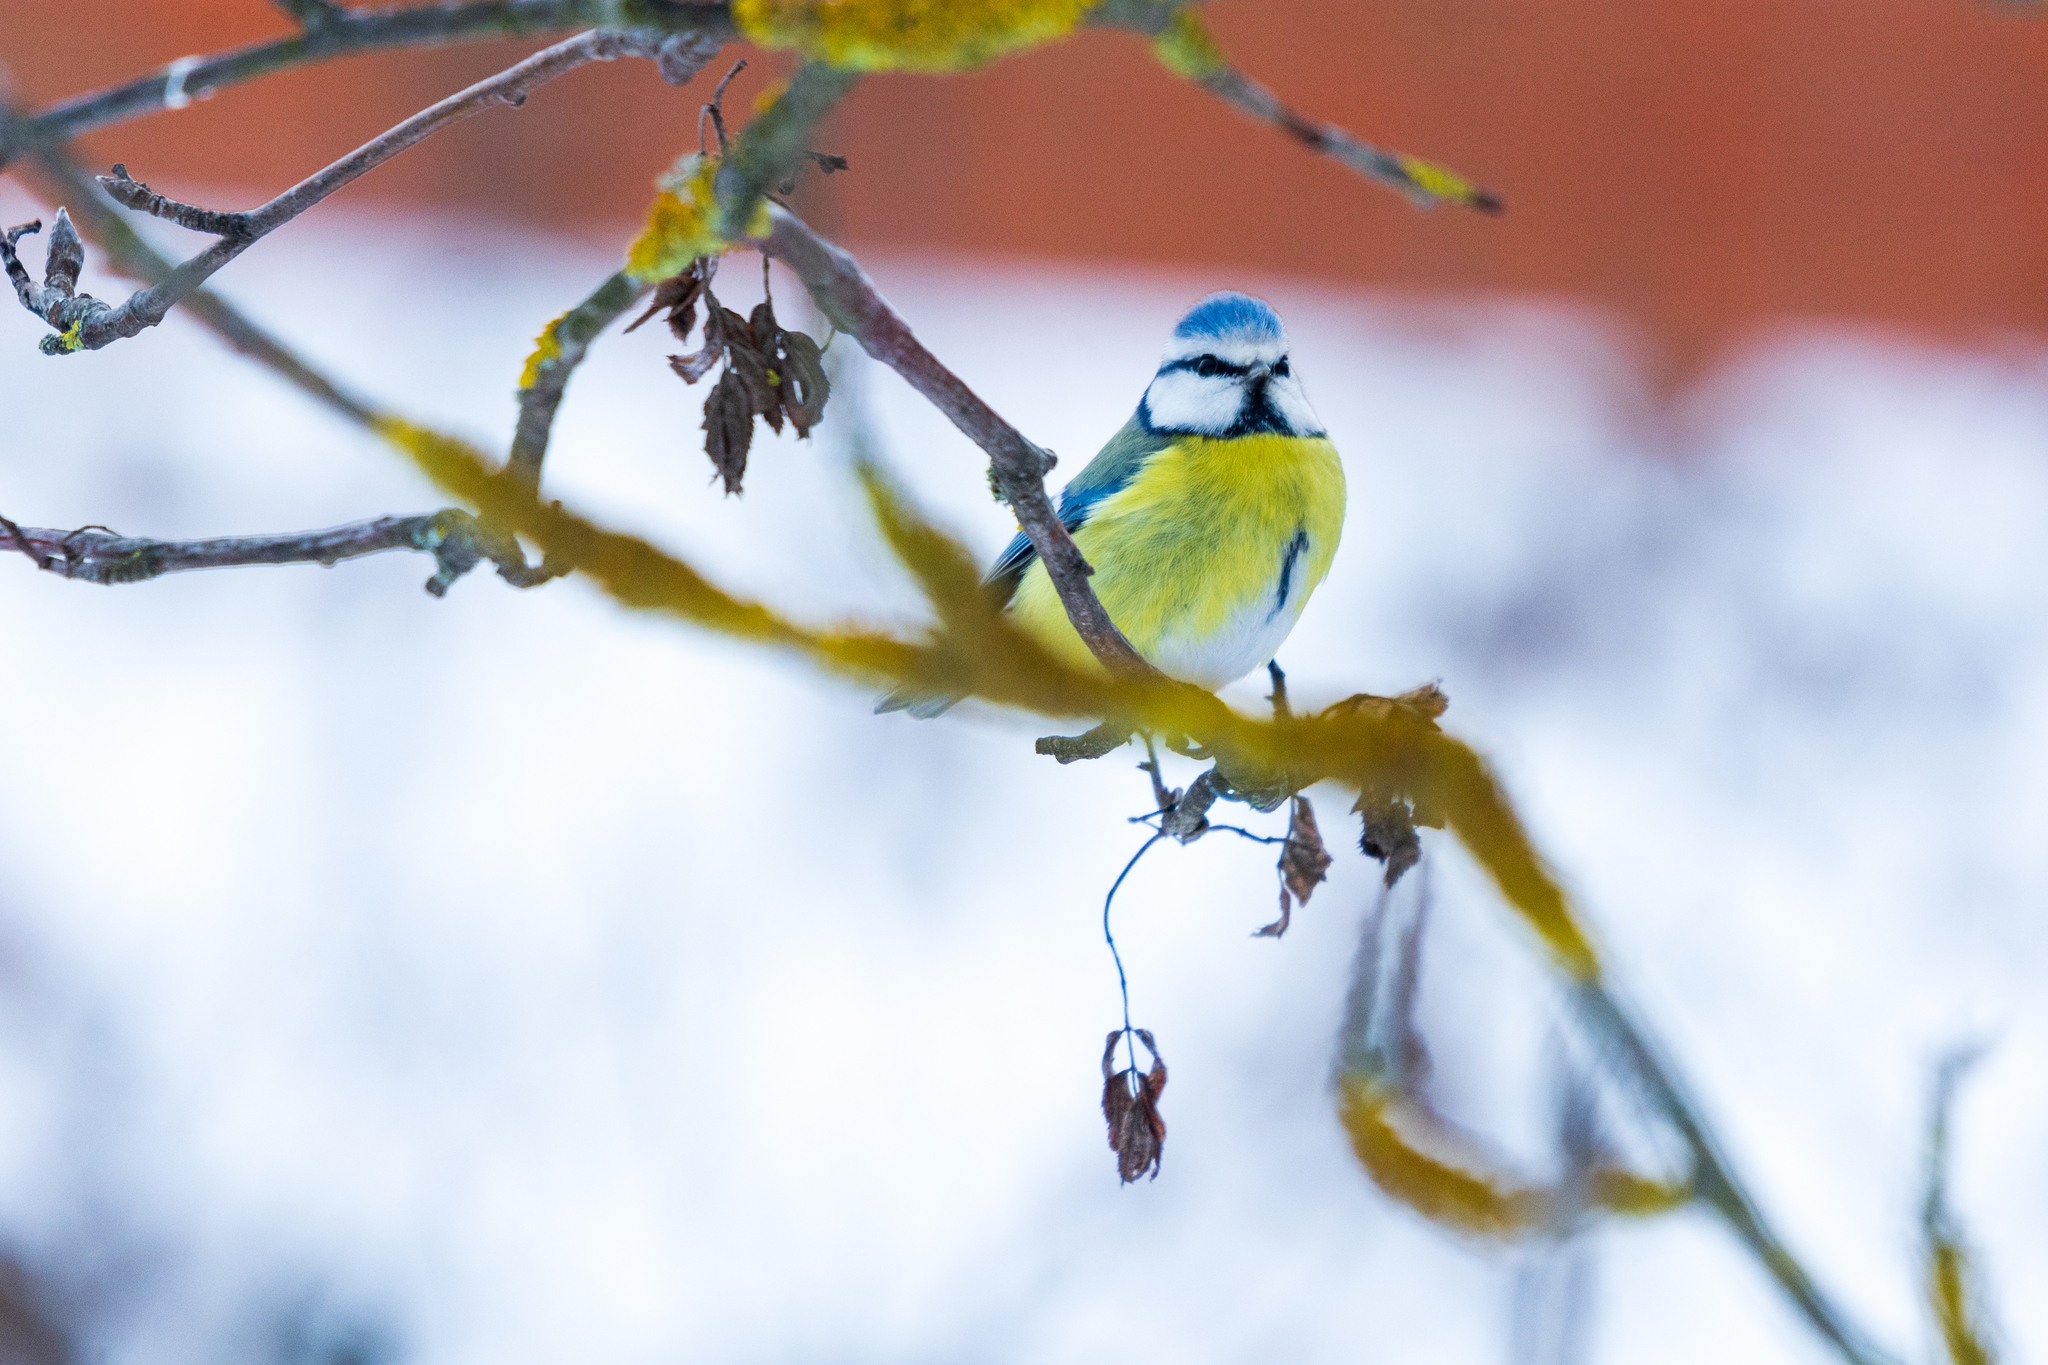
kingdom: Animalia
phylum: Chordata
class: Aves
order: Passeriformes
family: Paridae
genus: Cyanistes
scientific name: Cyanistes caeruleus
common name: Eurasian blue tit
